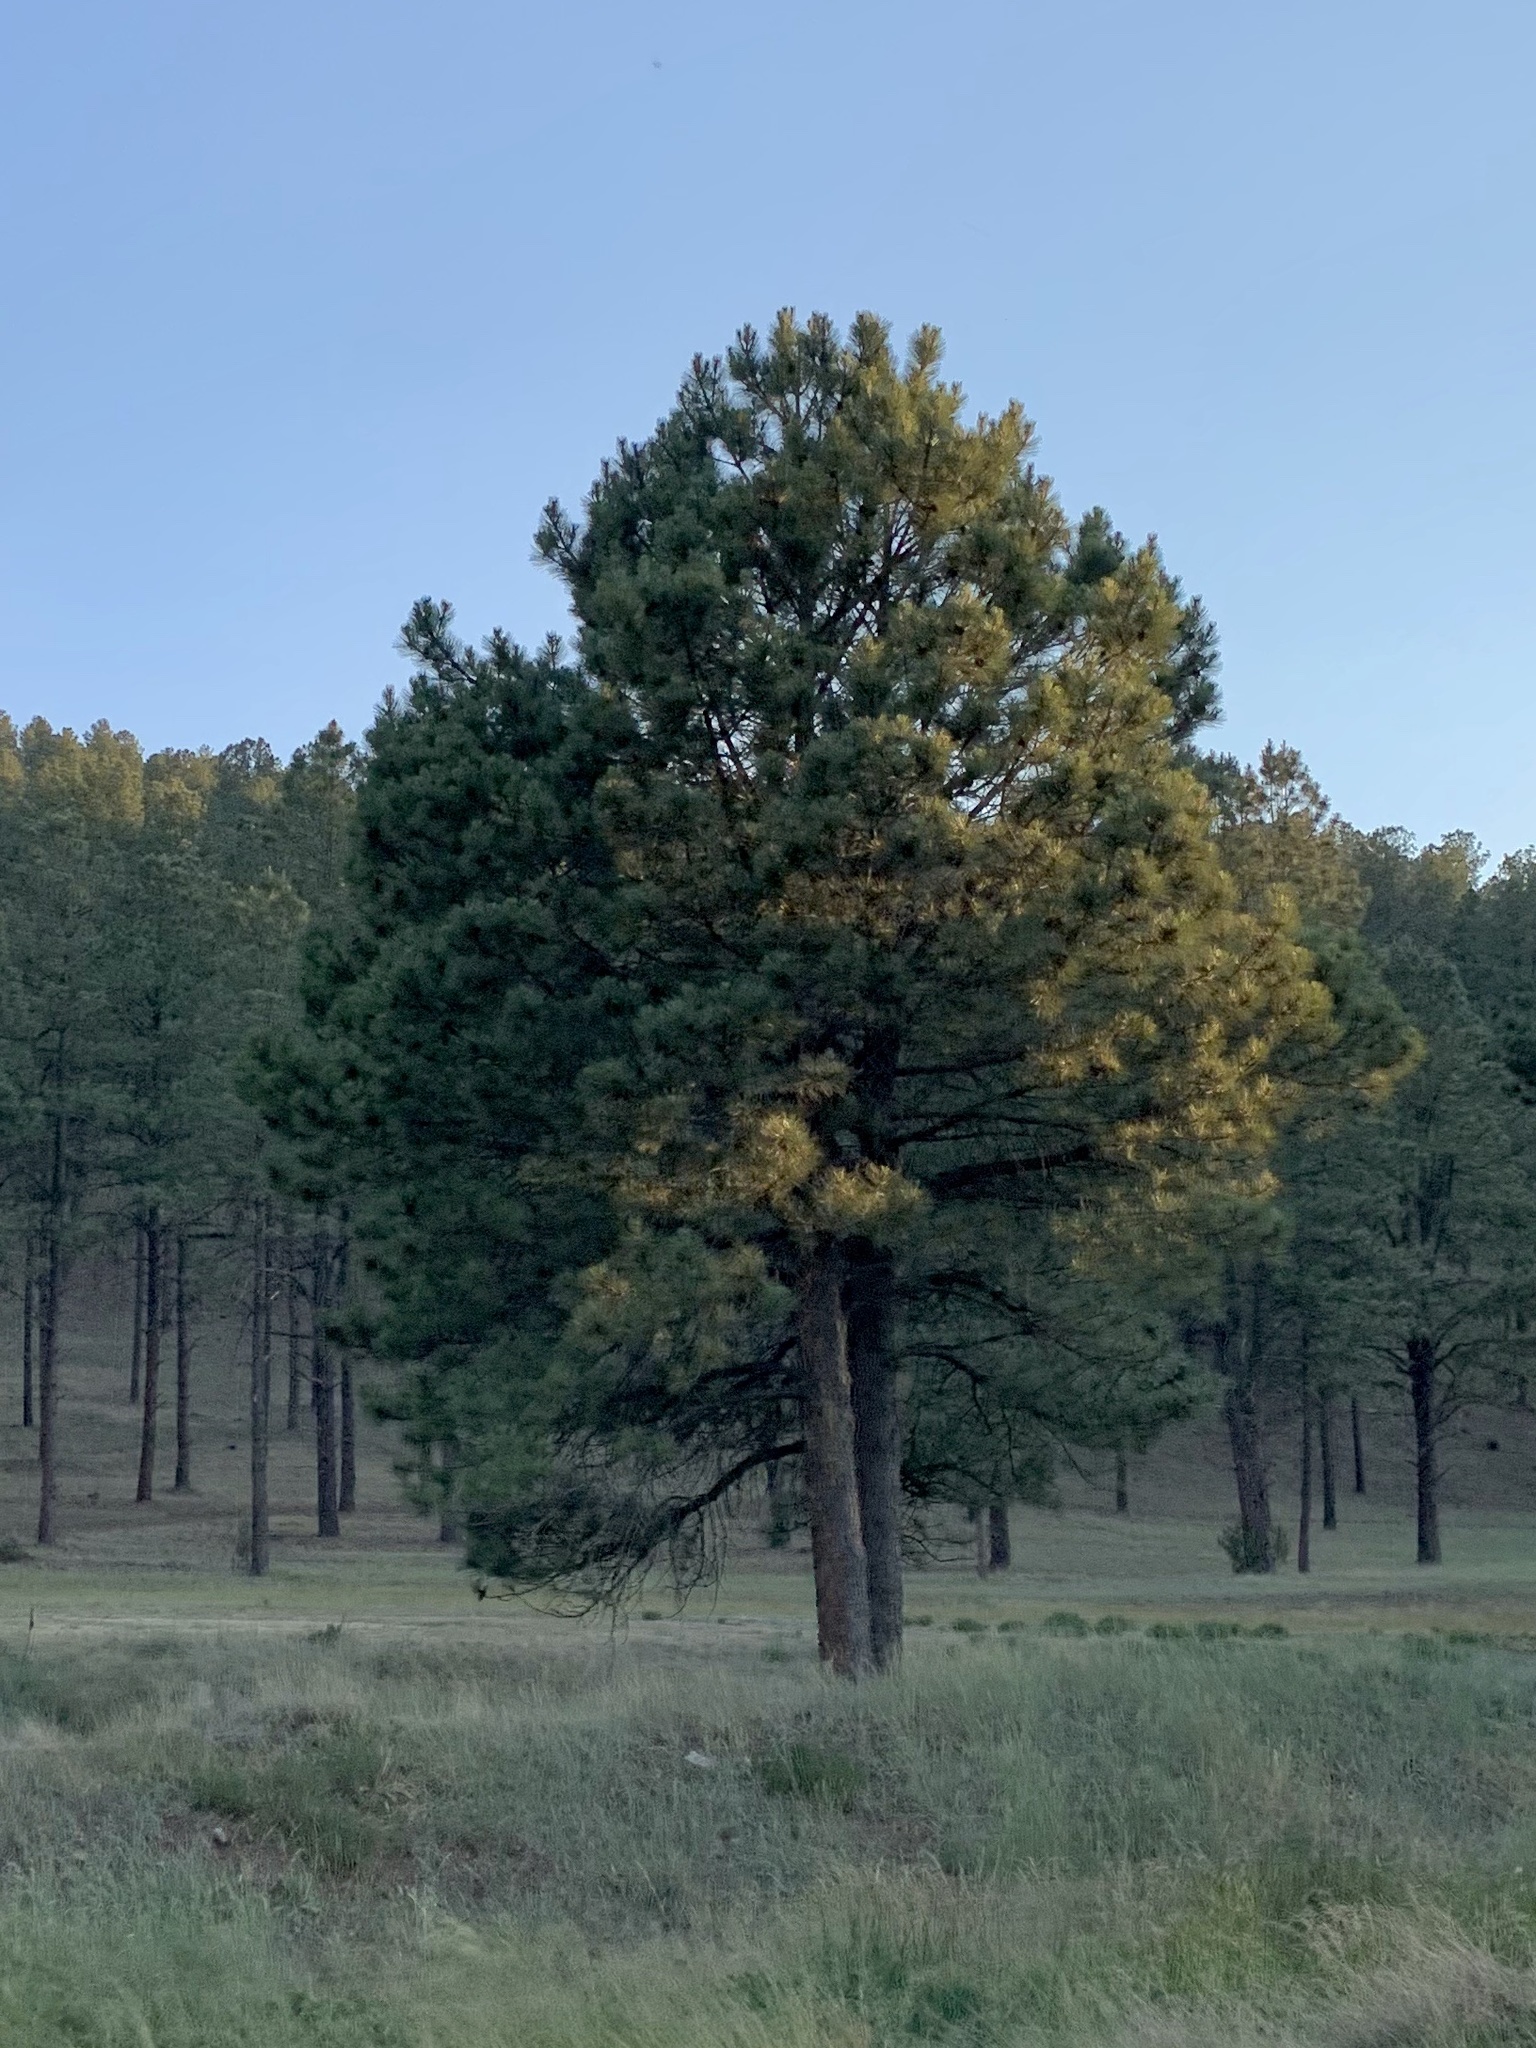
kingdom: Plantae
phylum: Tracheophyta
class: Pinopsida
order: Pinales
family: Pinaceae
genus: Pinus
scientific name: Pinus ponderosa
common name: Western yellow-pine
